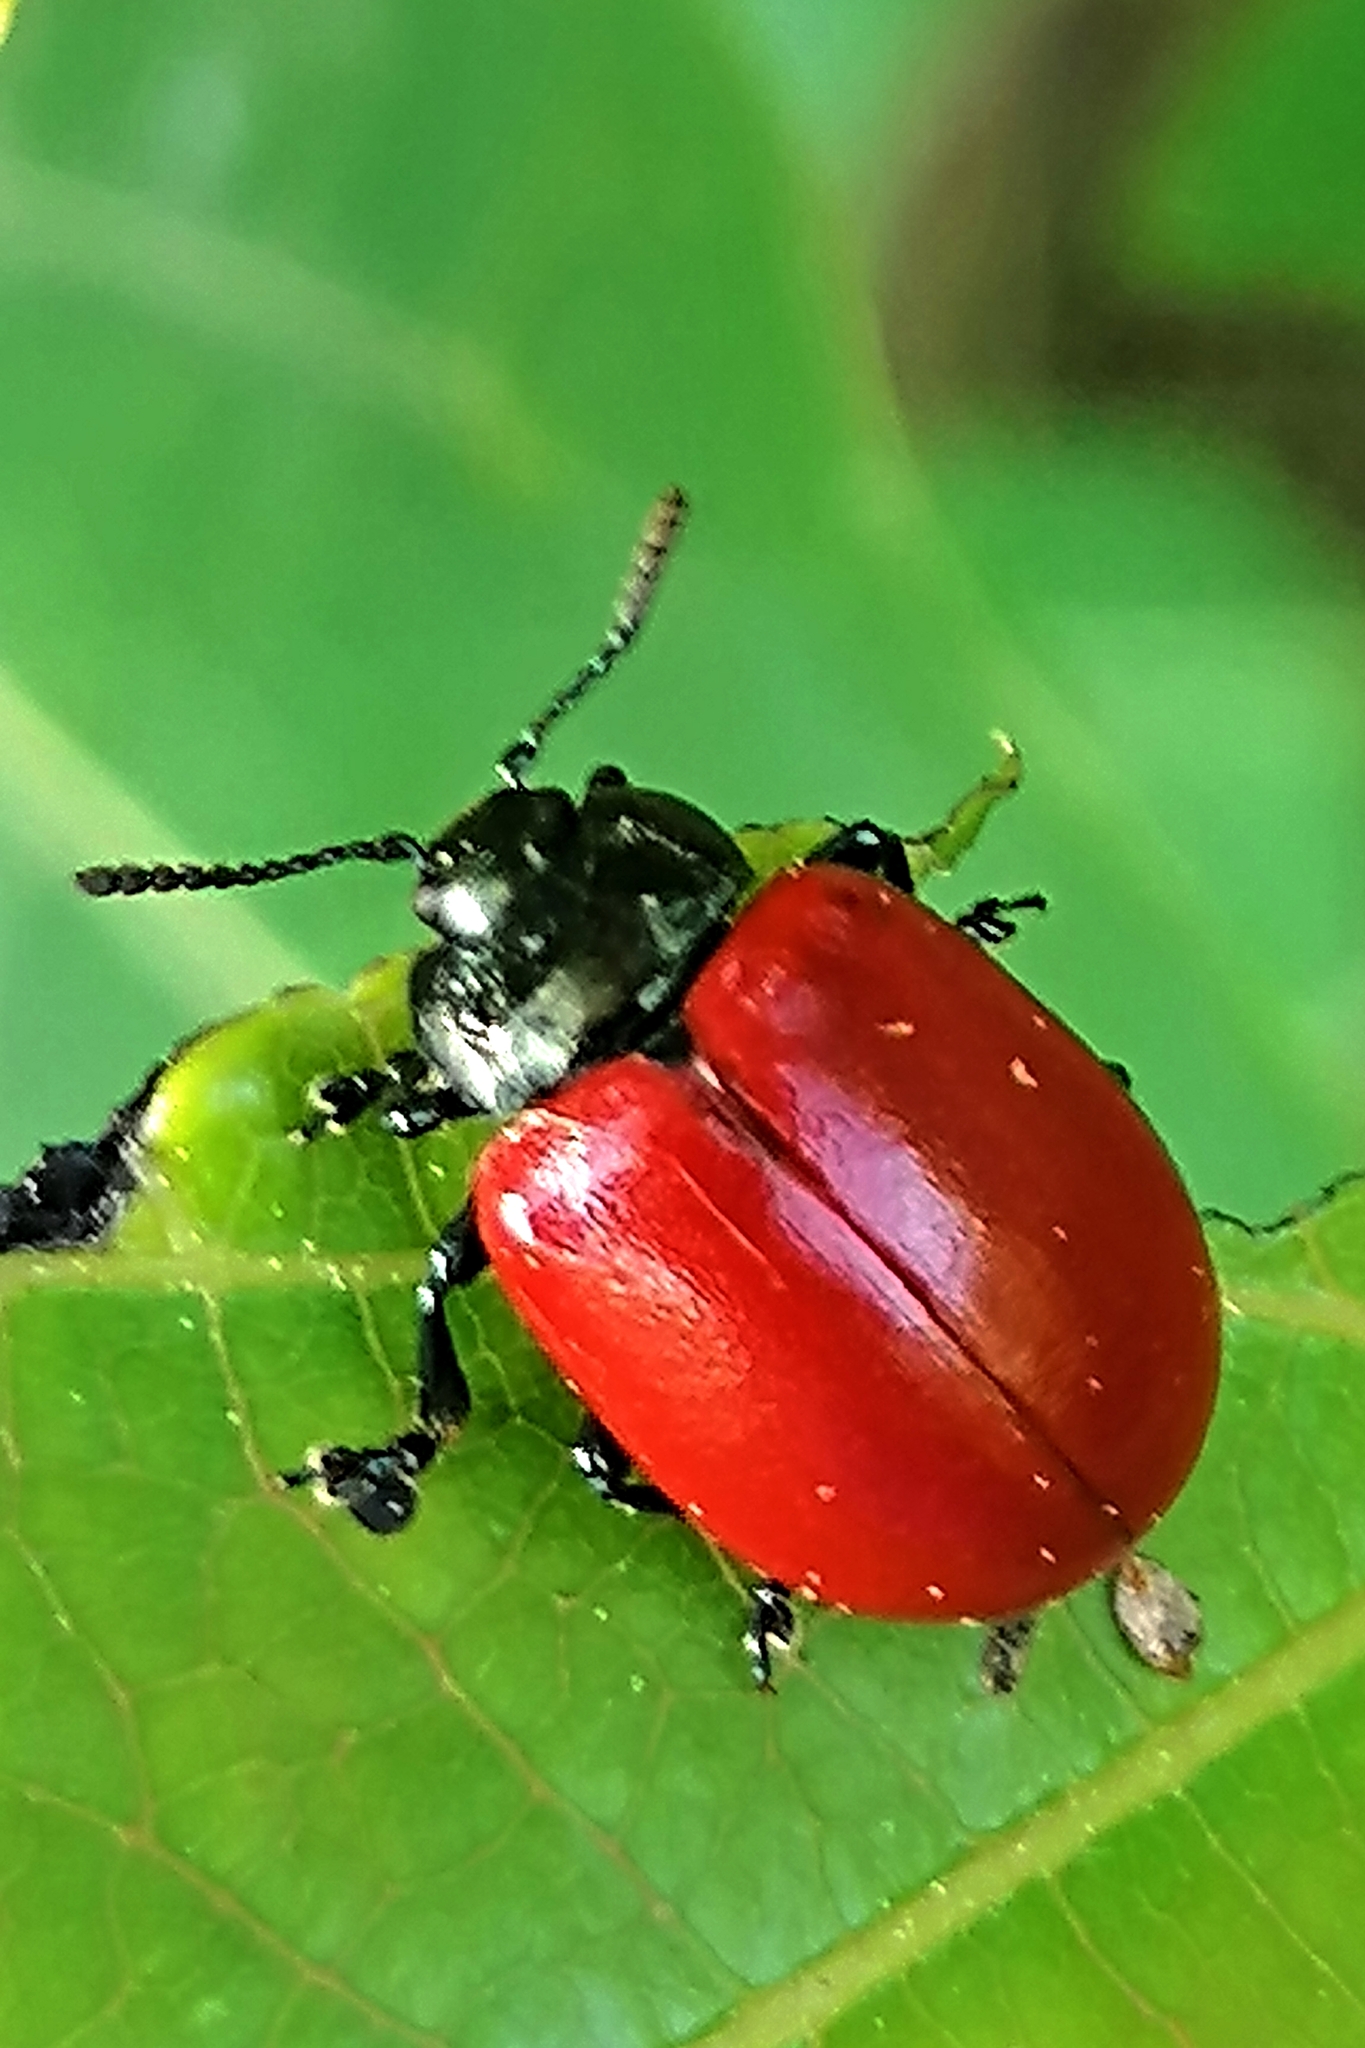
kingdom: Animalia
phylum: Arthropoda
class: Insecta
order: Coleoptera
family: Chrysomelidae
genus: Chrysomela
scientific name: Chrysomela populi
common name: Red poplar leaf beetle
